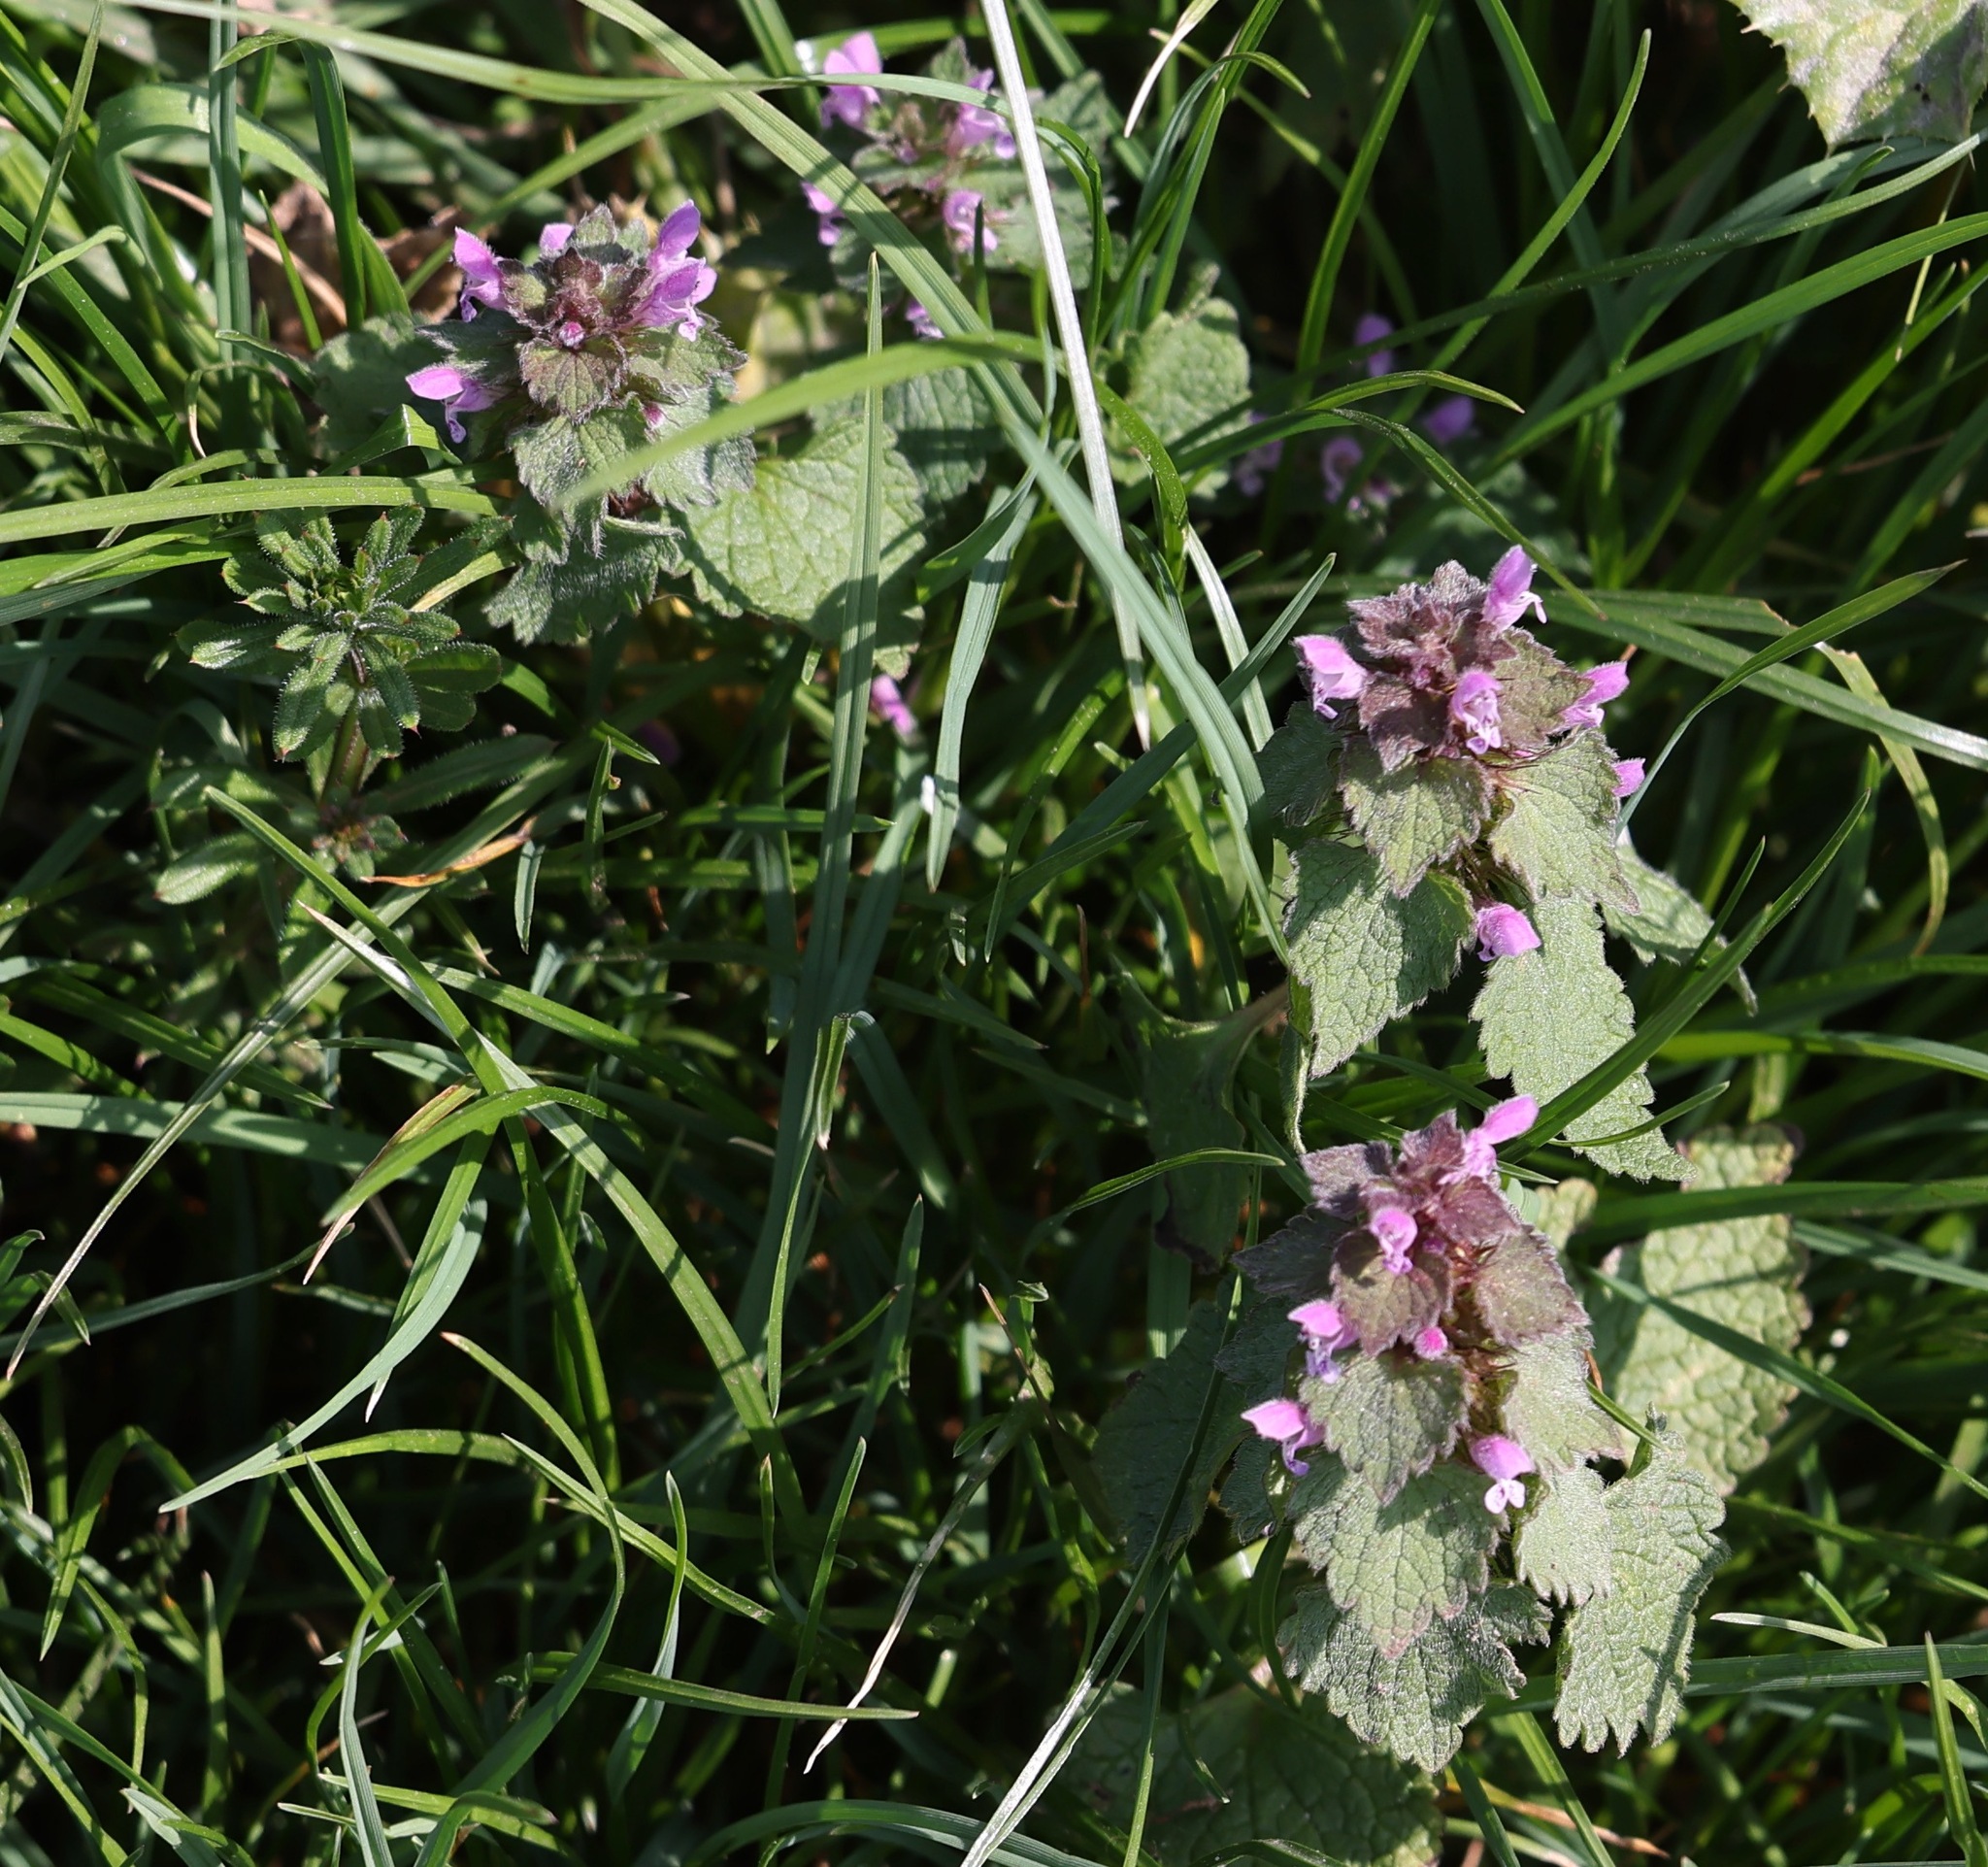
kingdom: Plantae
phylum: Tracheophyta
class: Magnoliopsida
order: Lamiales
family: Lamiaceae
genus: Lamium
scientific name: Lamium purpureum
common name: Red dead-nettle
